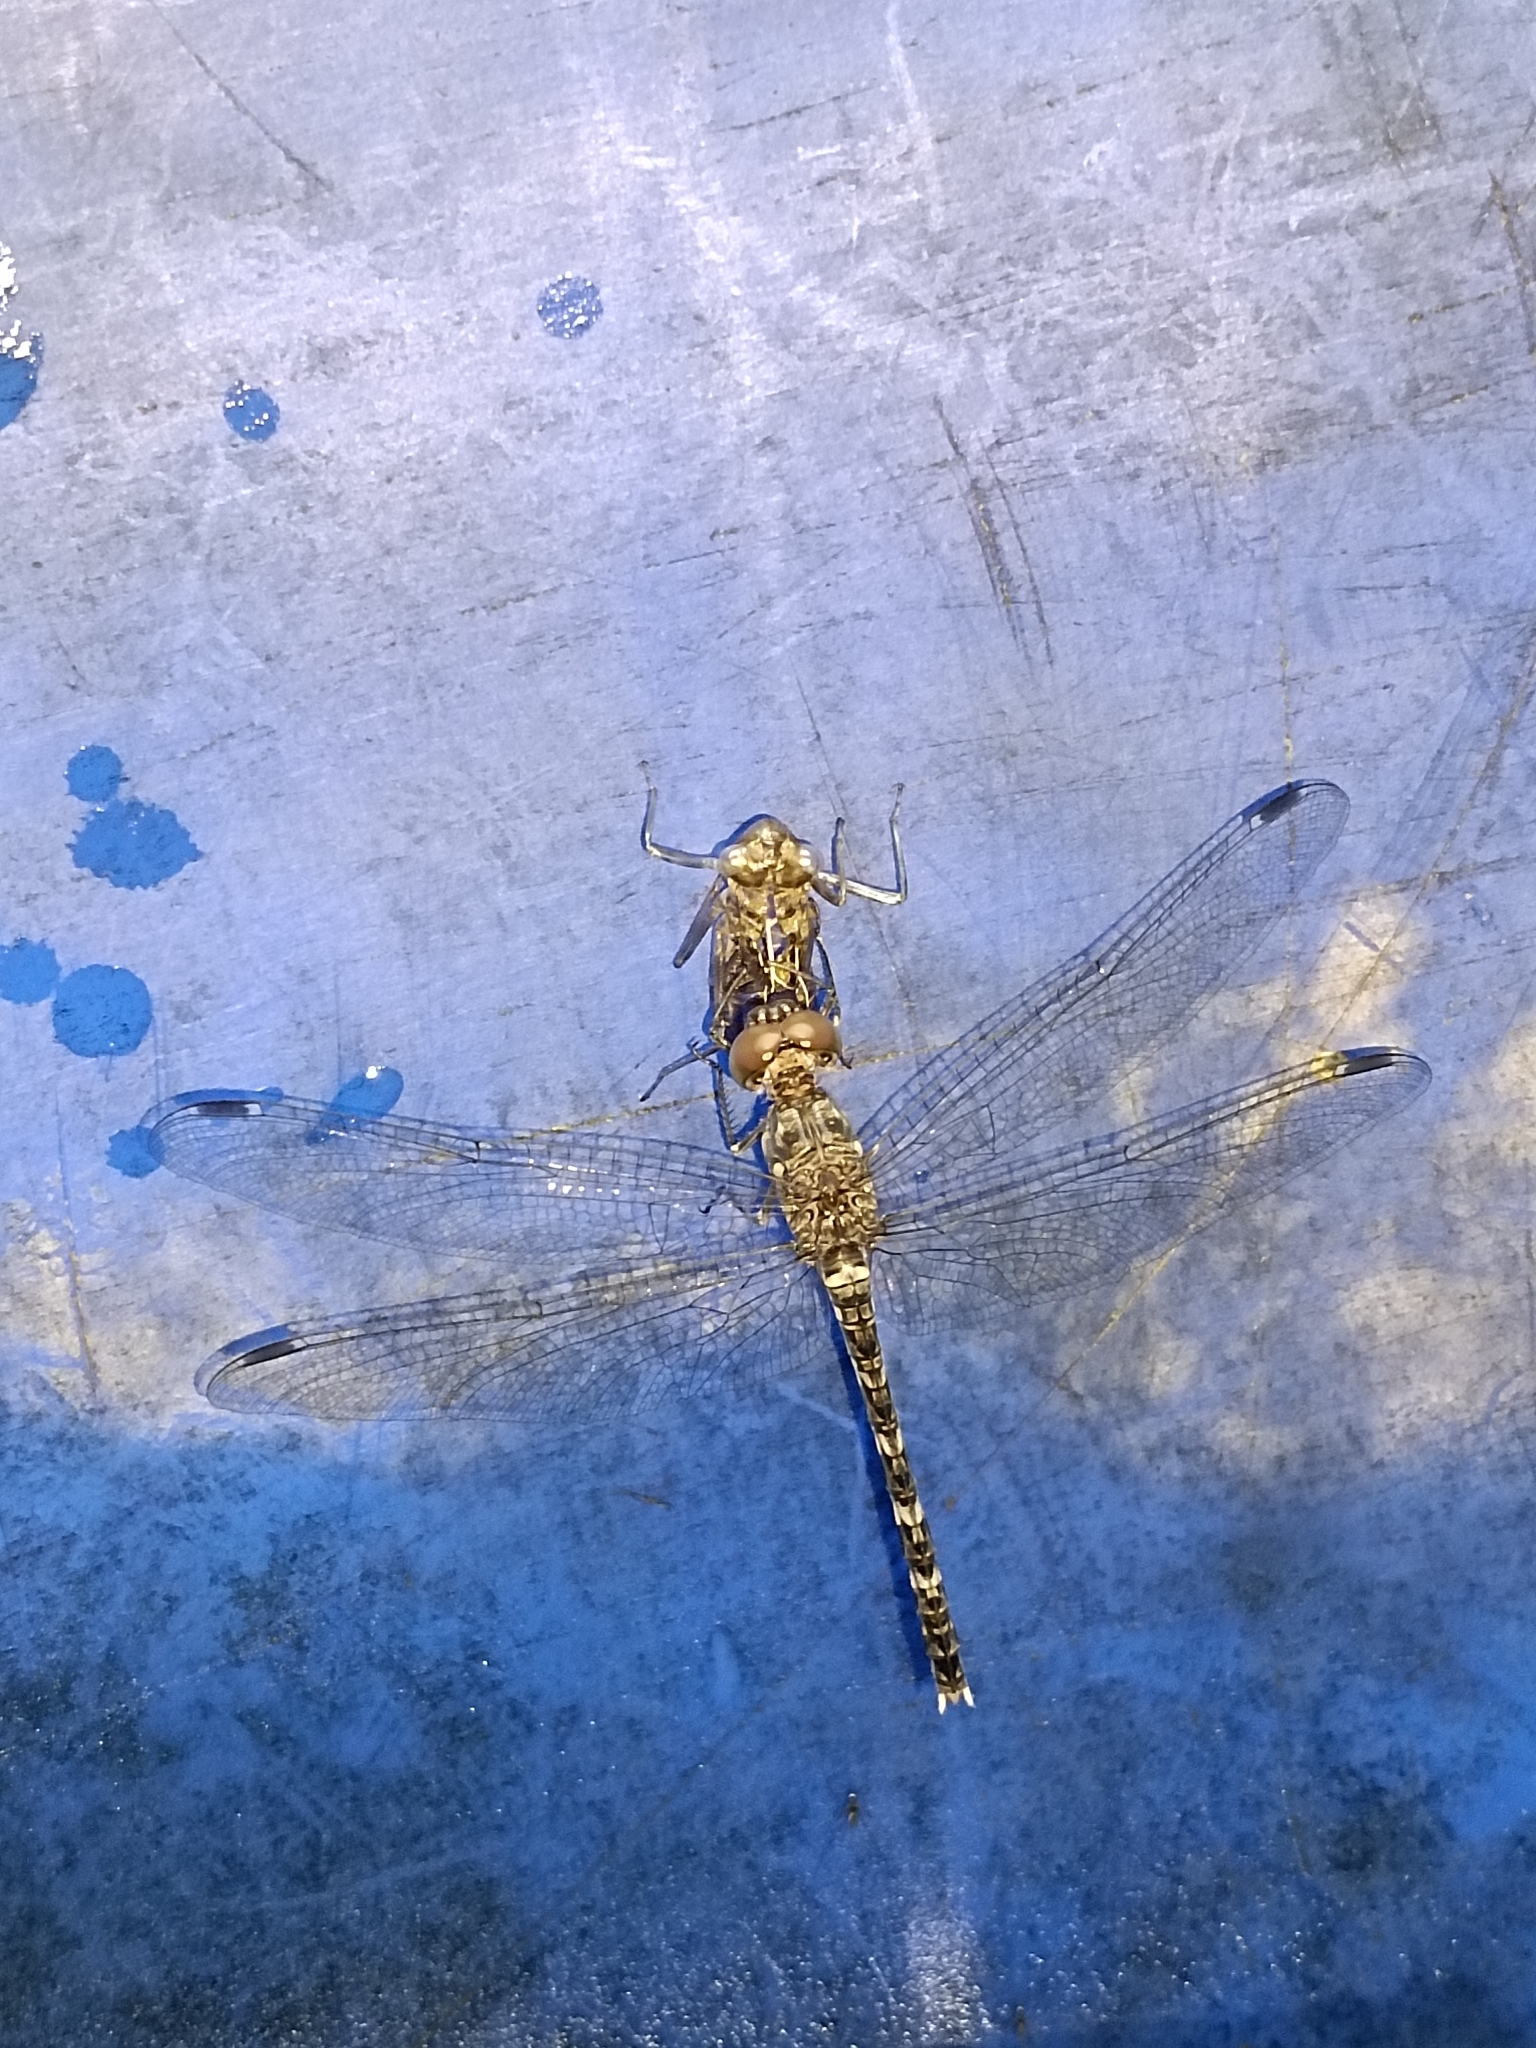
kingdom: Animalia
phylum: Arthropoda
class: Insecta
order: Odonata
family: Libellulidae
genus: Bradinopyga
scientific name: Bradinopyga geminata
